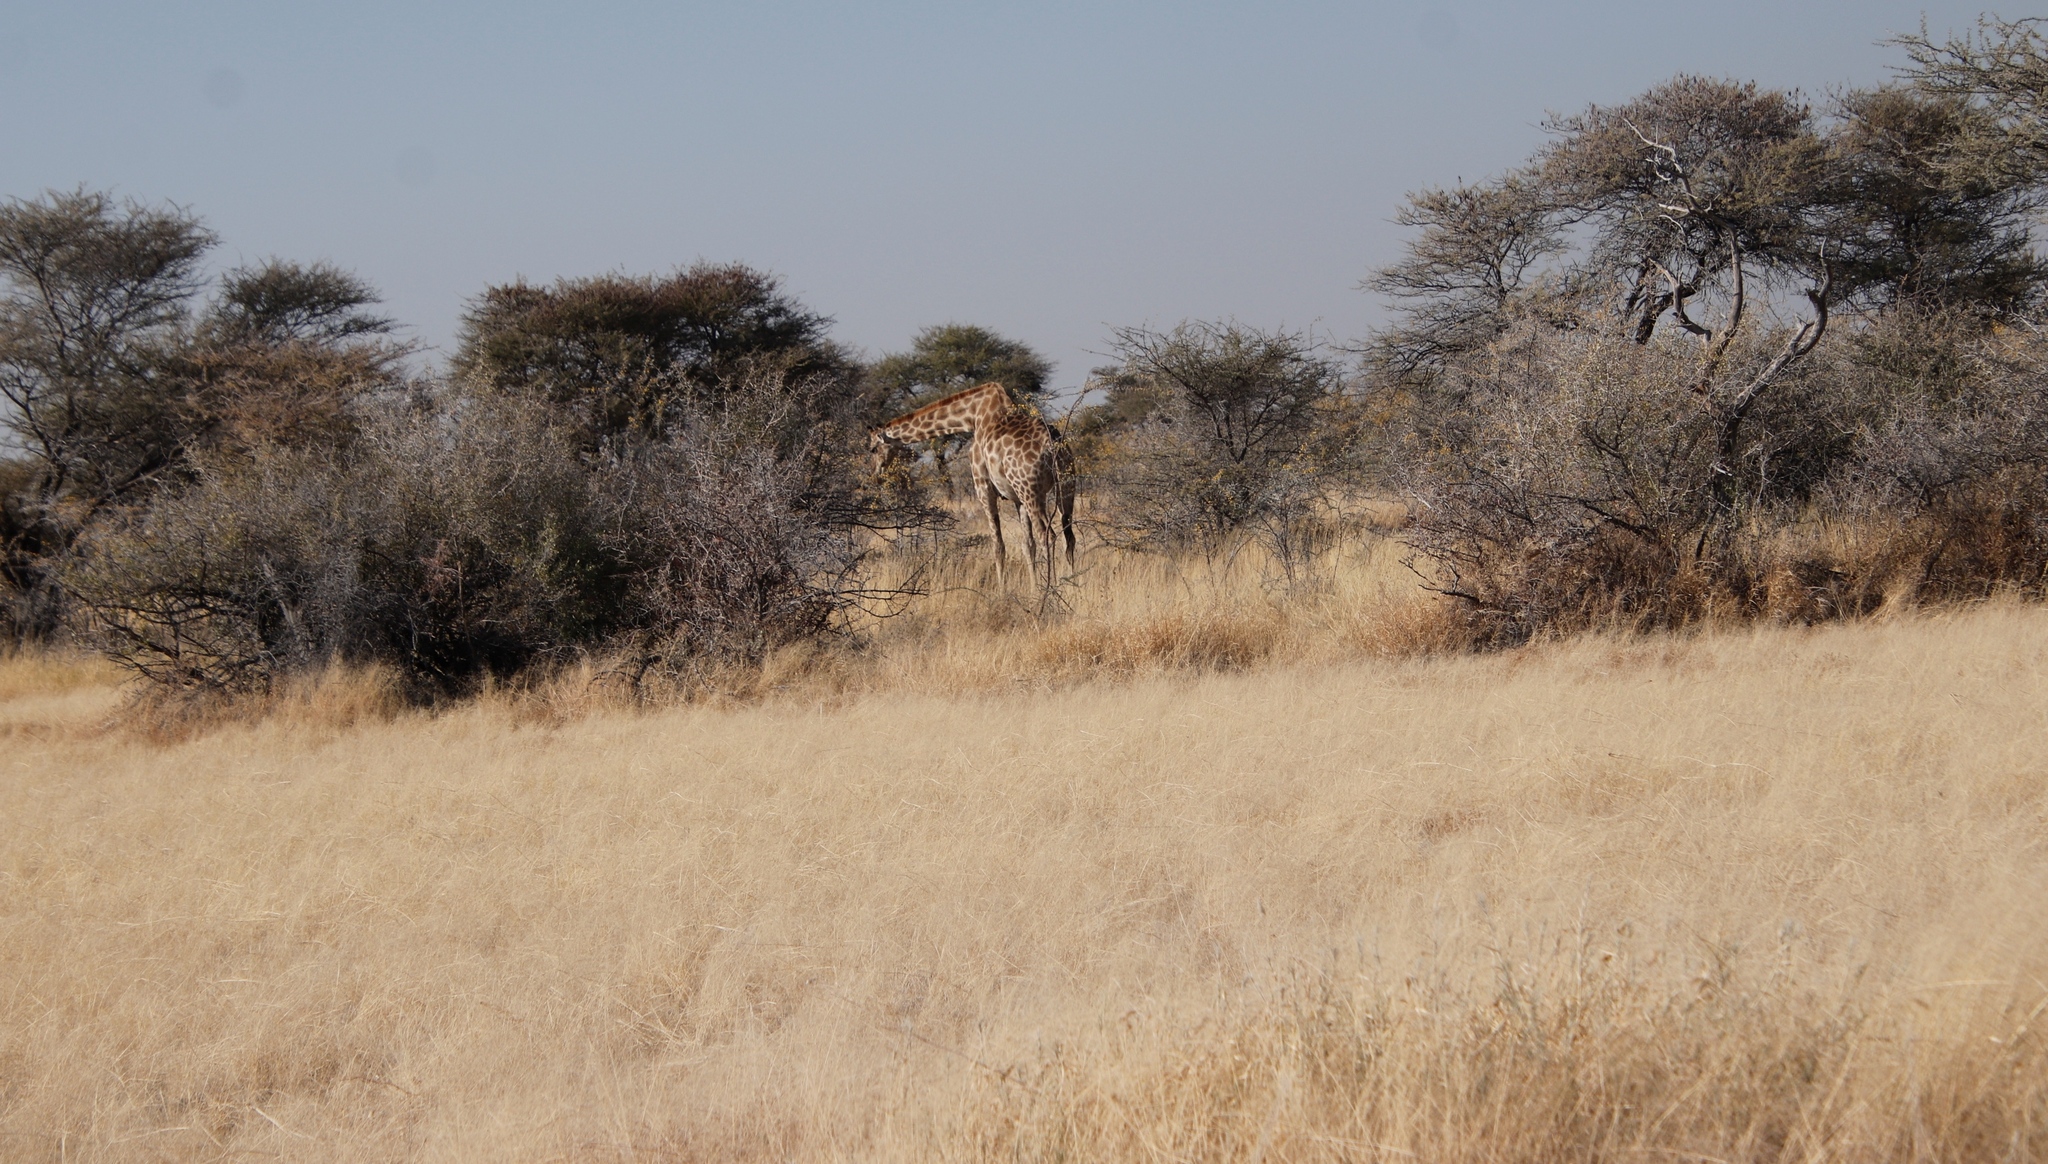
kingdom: Animalia
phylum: Chordata
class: Mammalia
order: Artiodactyla
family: Giraffidae
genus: Giraffa
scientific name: Giraffa giraffa
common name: Southern giraffe
